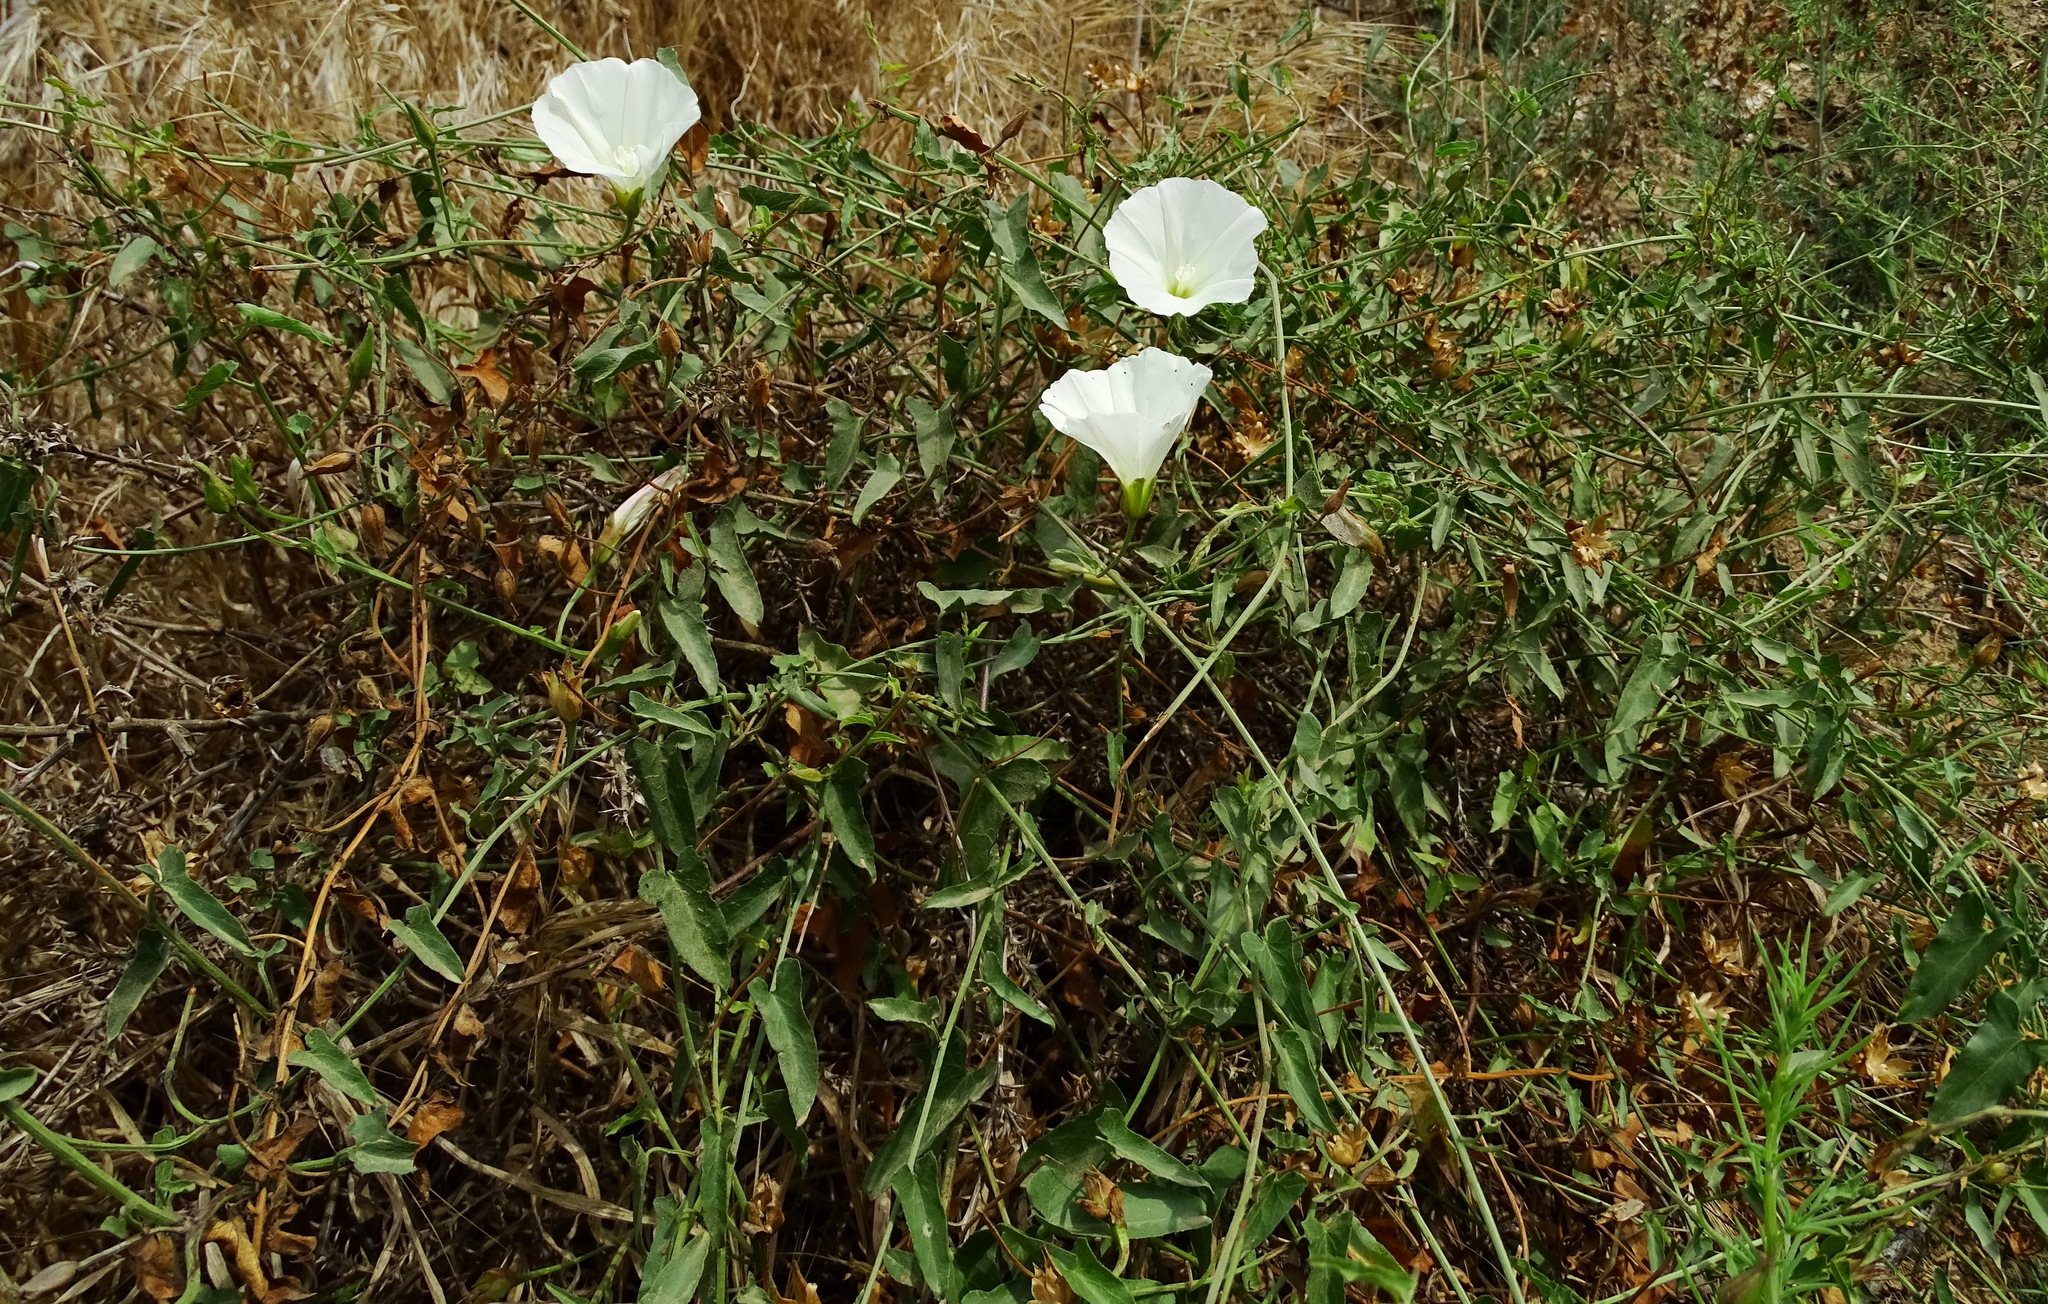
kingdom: Plantae
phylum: Tracheophyta
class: Magnoliopsida
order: Solanales
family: Convolvulaceae
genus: Calystegia
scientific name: Calystegia macrostegia
